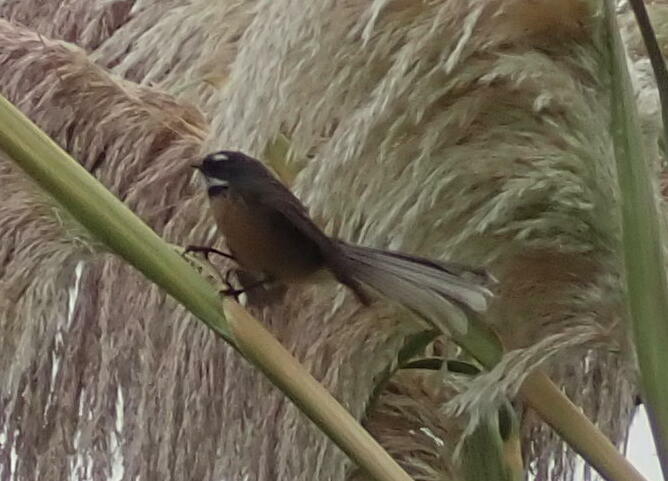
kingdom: Animalia
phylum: Chordata
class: Aves
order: Passeriformes
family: Rhipiduridae
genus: Rhipidura
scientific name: Rhipidura fuliginosa
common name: New zealand fantail
